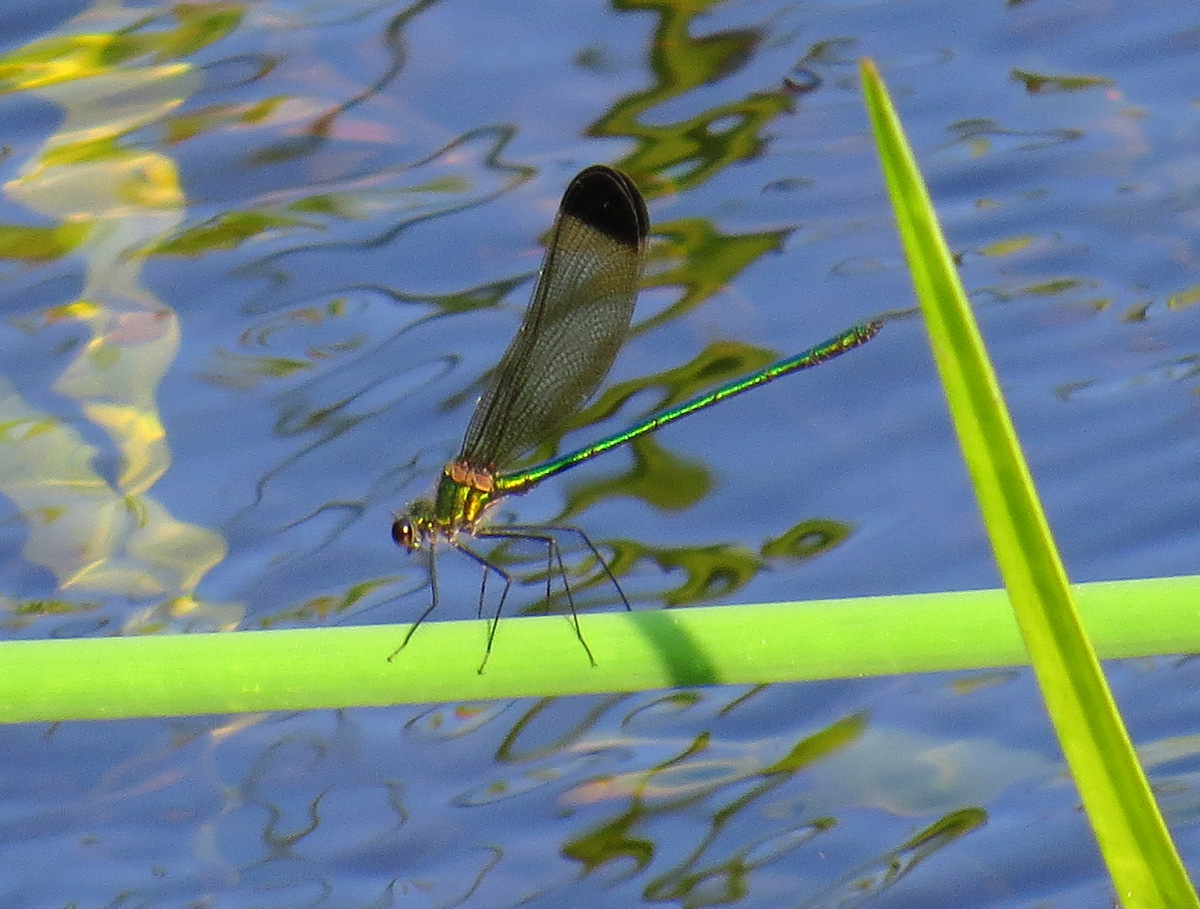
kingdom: Animalia
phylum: Arthropoda
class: Insecta
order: Odonata
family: Calopterygidae
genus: Calopteryx
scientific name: Calopteryx dimidiata
